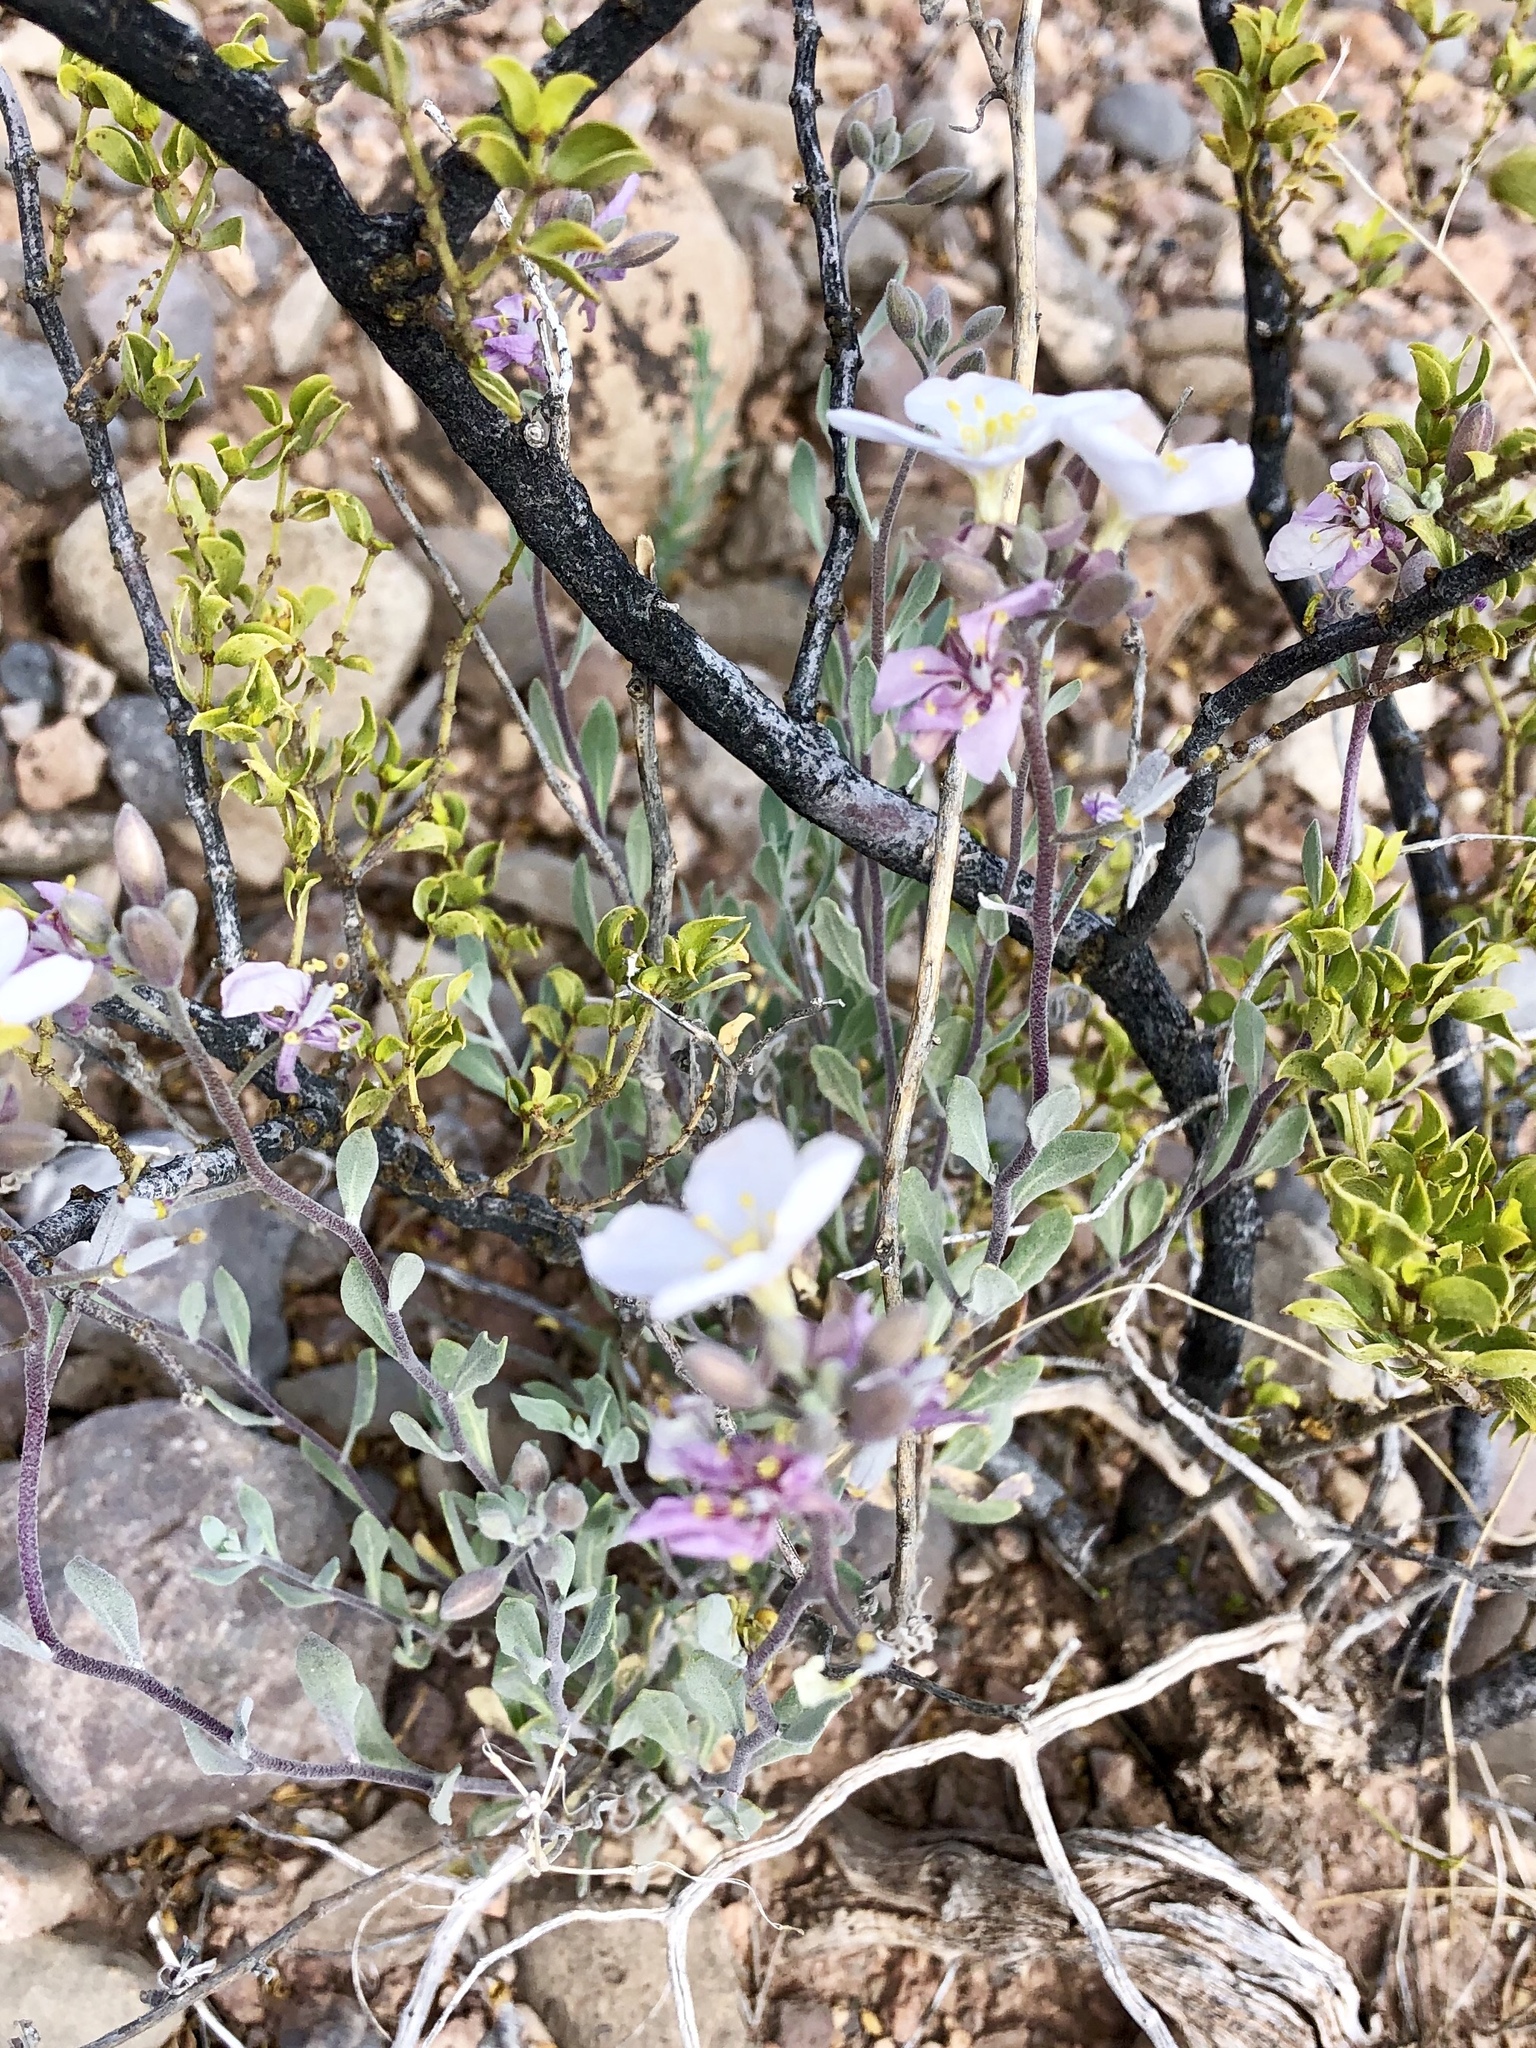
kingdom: Plantae
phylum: Tracheophyta
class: Magnoliopsida
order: Brassicales
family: Brassicaceae
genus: Nerisyrenia
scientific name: Nerisyrenia camporum
